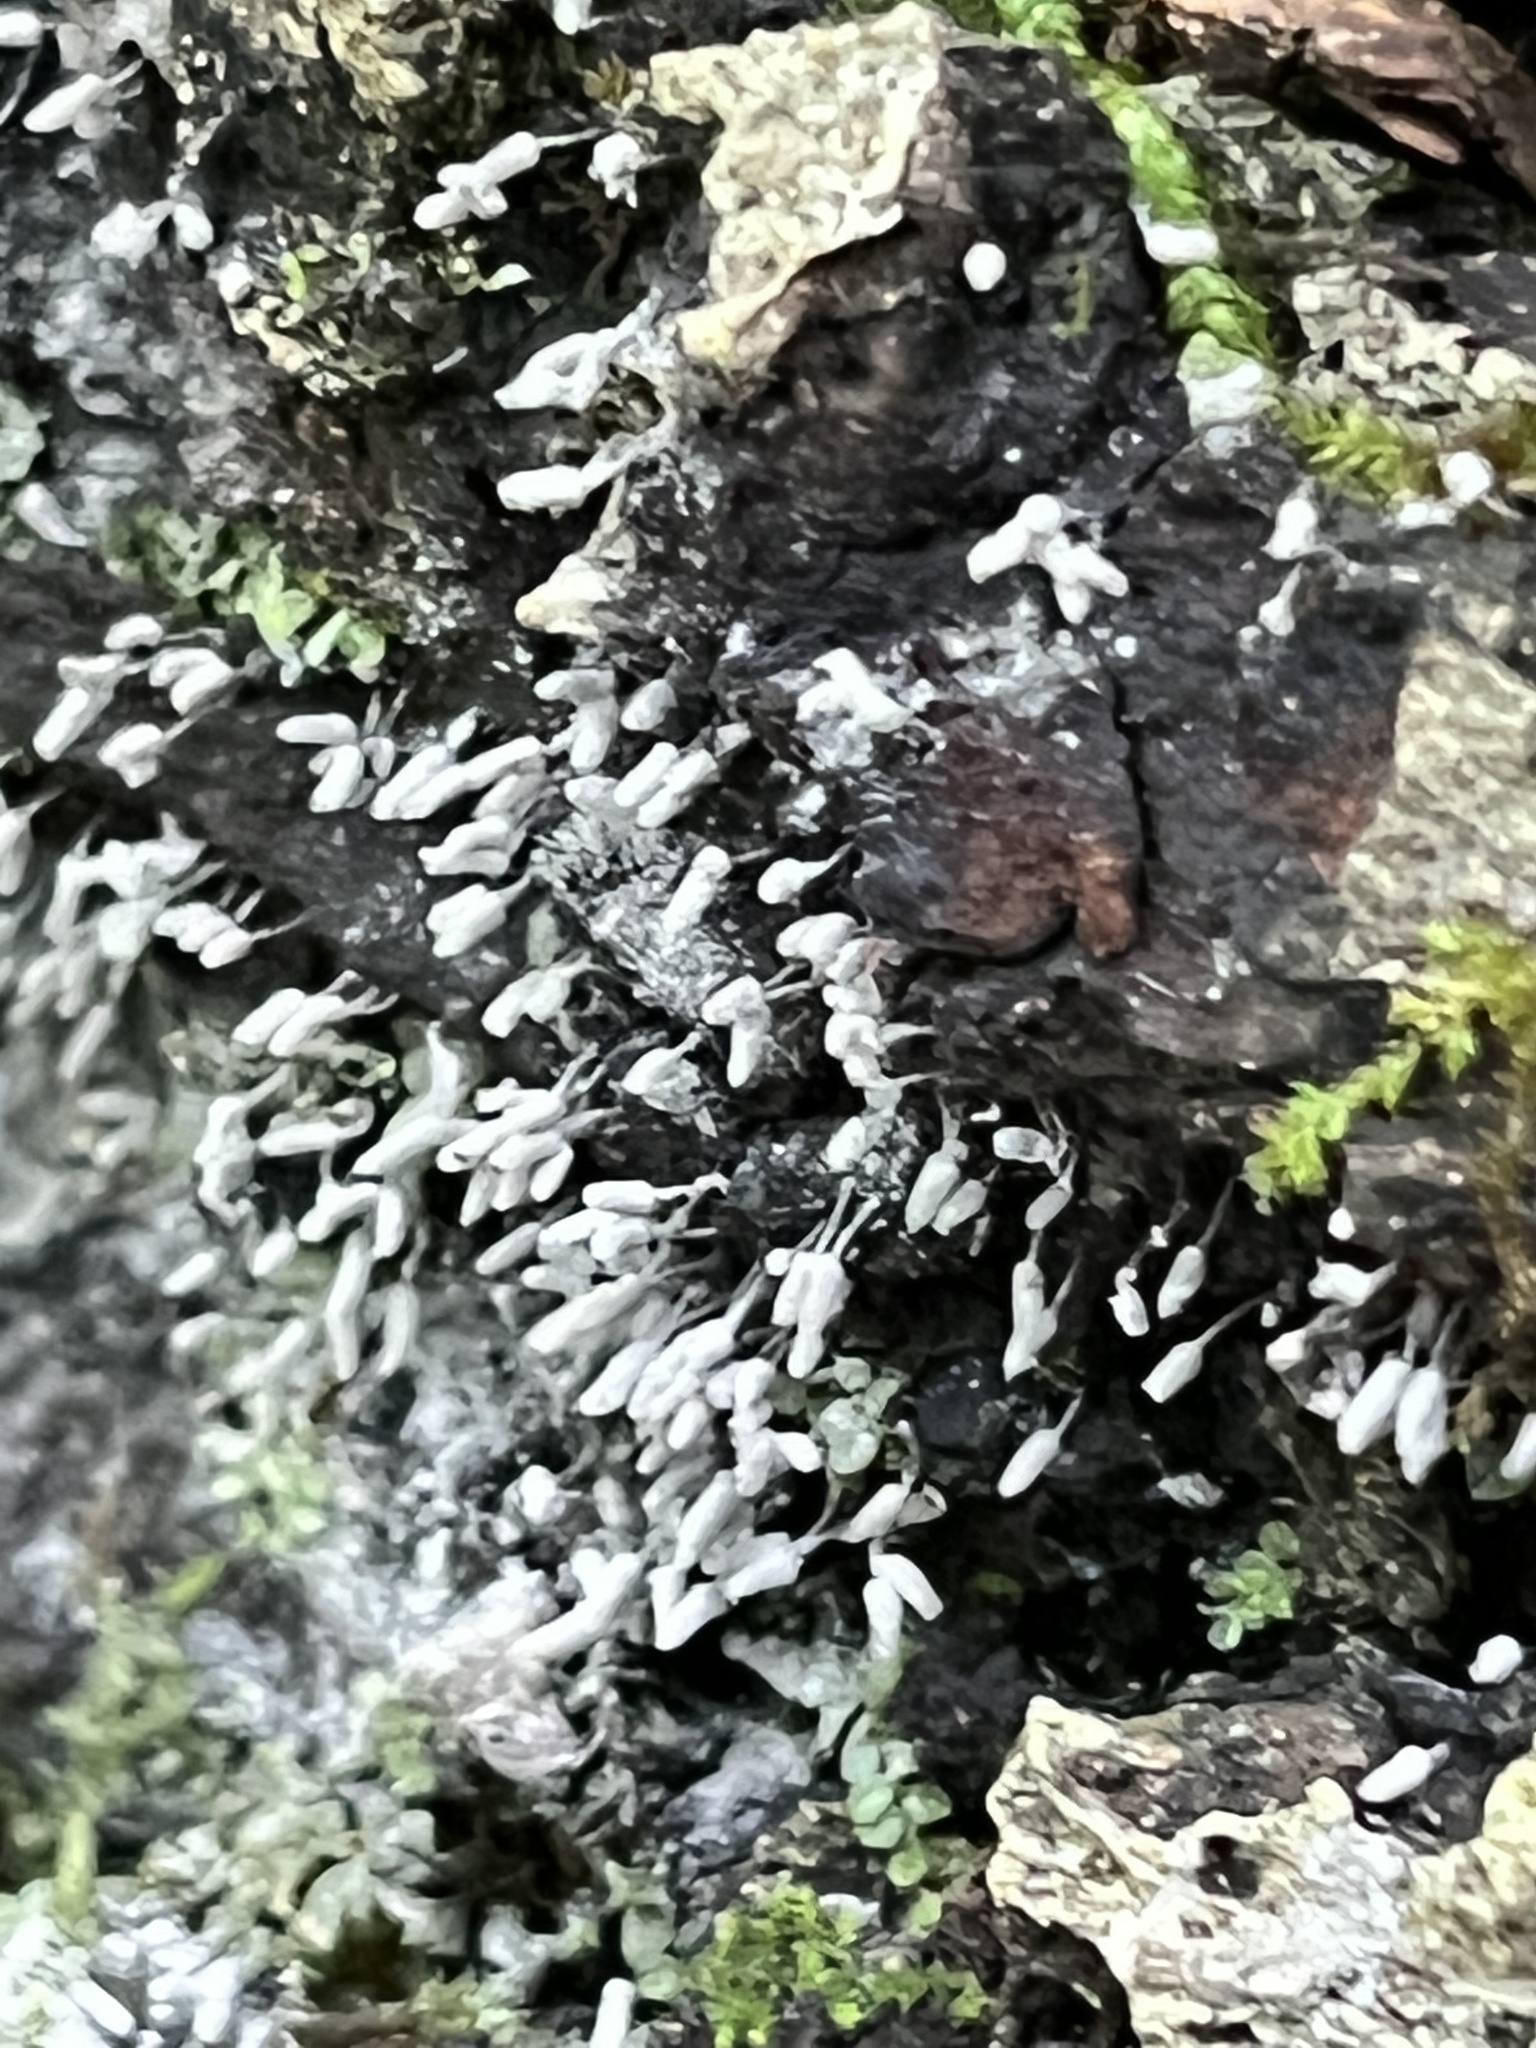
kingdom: Protozoa
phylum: Mycetozoa
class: Myxomycetes
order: Trichiales
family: Arcyriaceae
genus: Arcyria
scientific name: Arcyria cinerea
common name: White carnival candy slime mold
